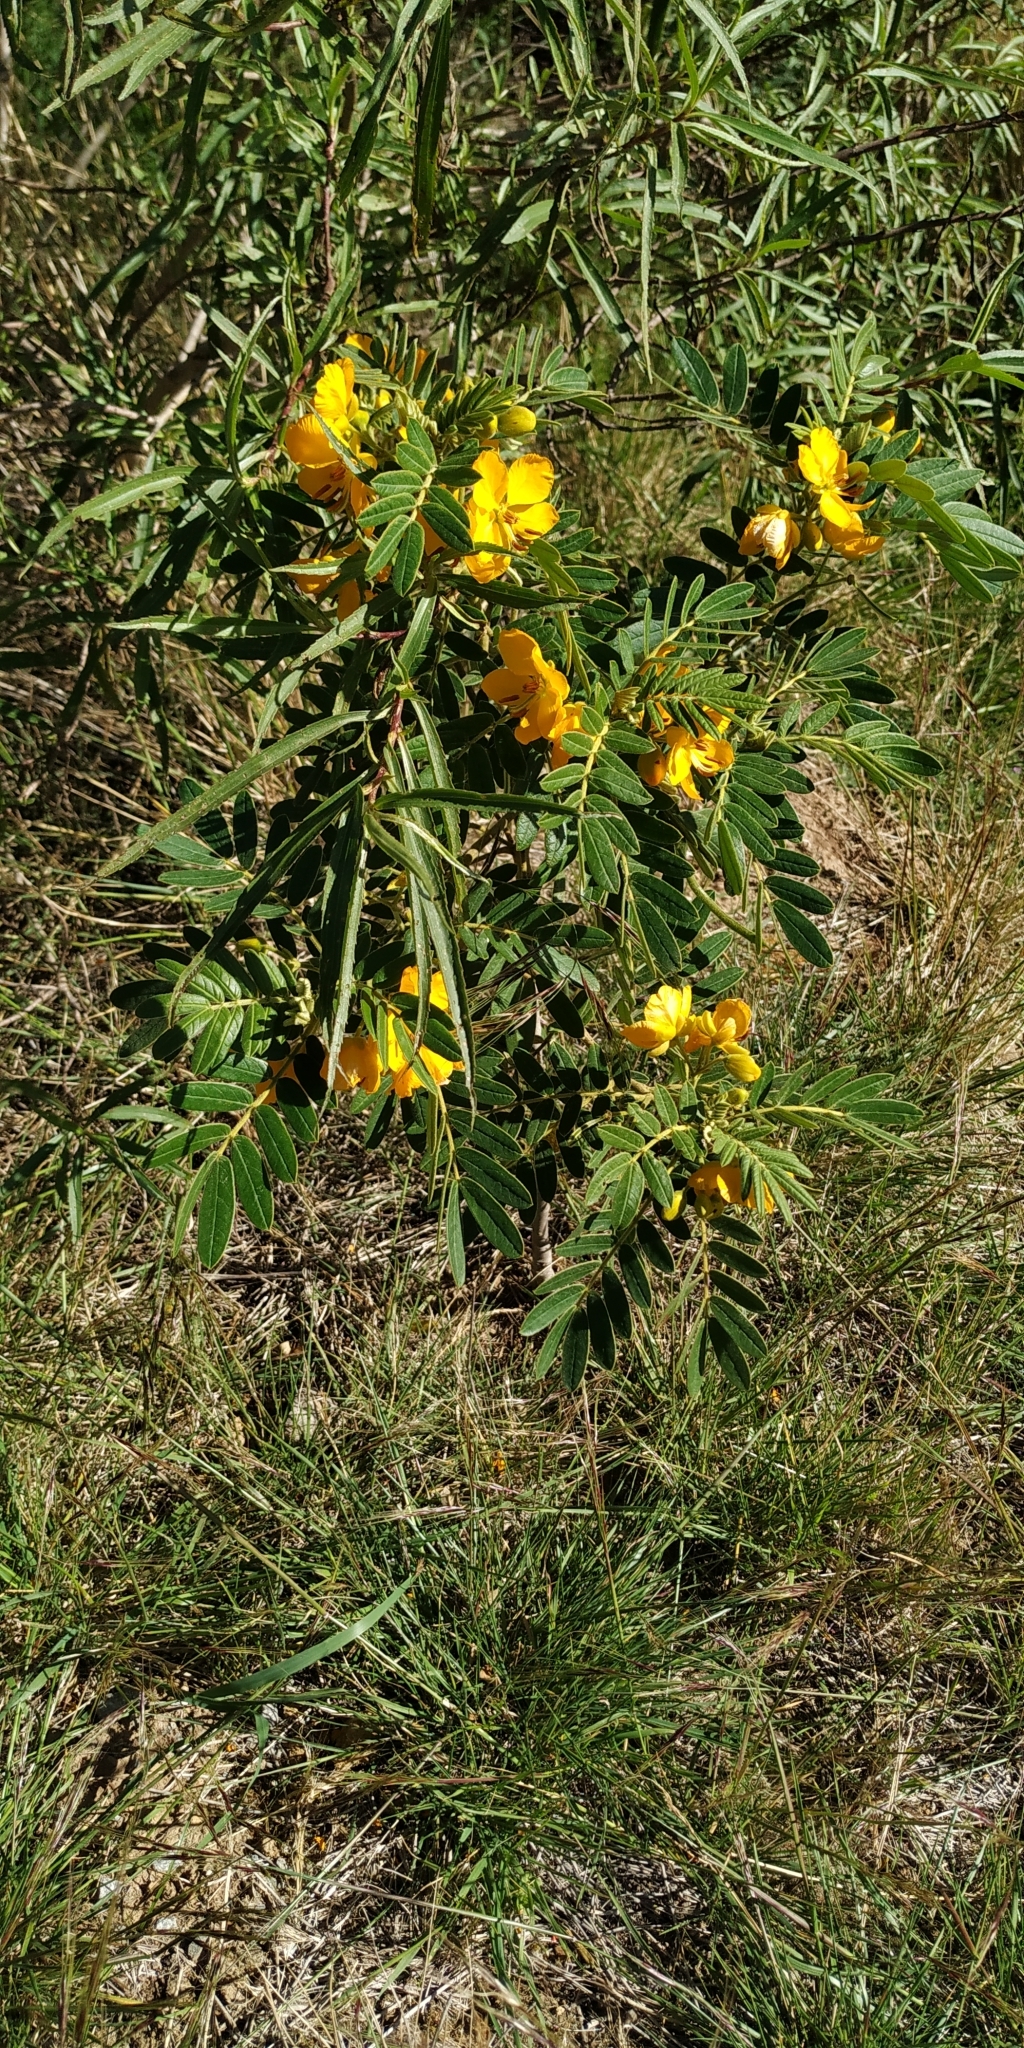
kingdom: Plantae
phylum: Tracheophyta
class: Magnoliopsida
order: Fabales
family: Fabaceae
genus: Senna
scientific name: Senna multiglandulosa
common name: Glandular senna
